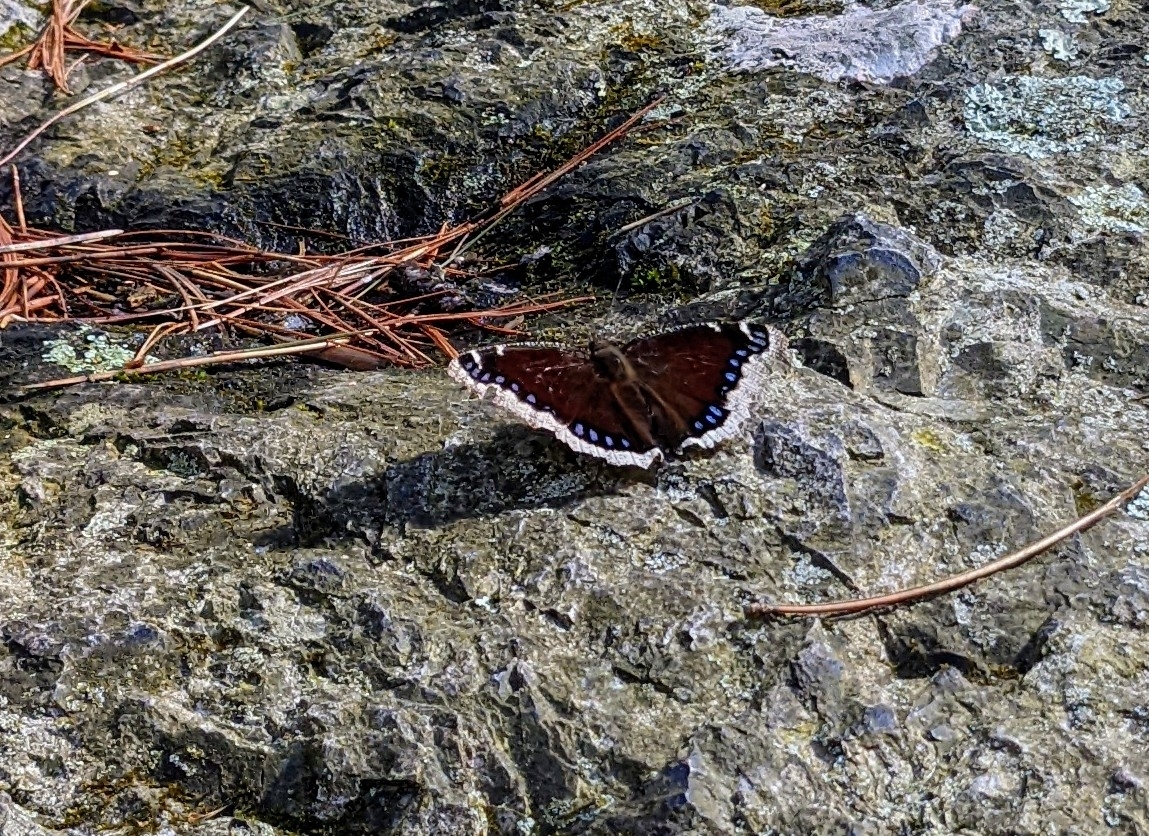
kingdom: Animalia
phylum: Arthropoda
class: Insecta
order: Lepidoptera
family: Nymphalidae
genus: Nymphalis
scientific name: Nymphalis antiopa
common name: Camberwell beauty
